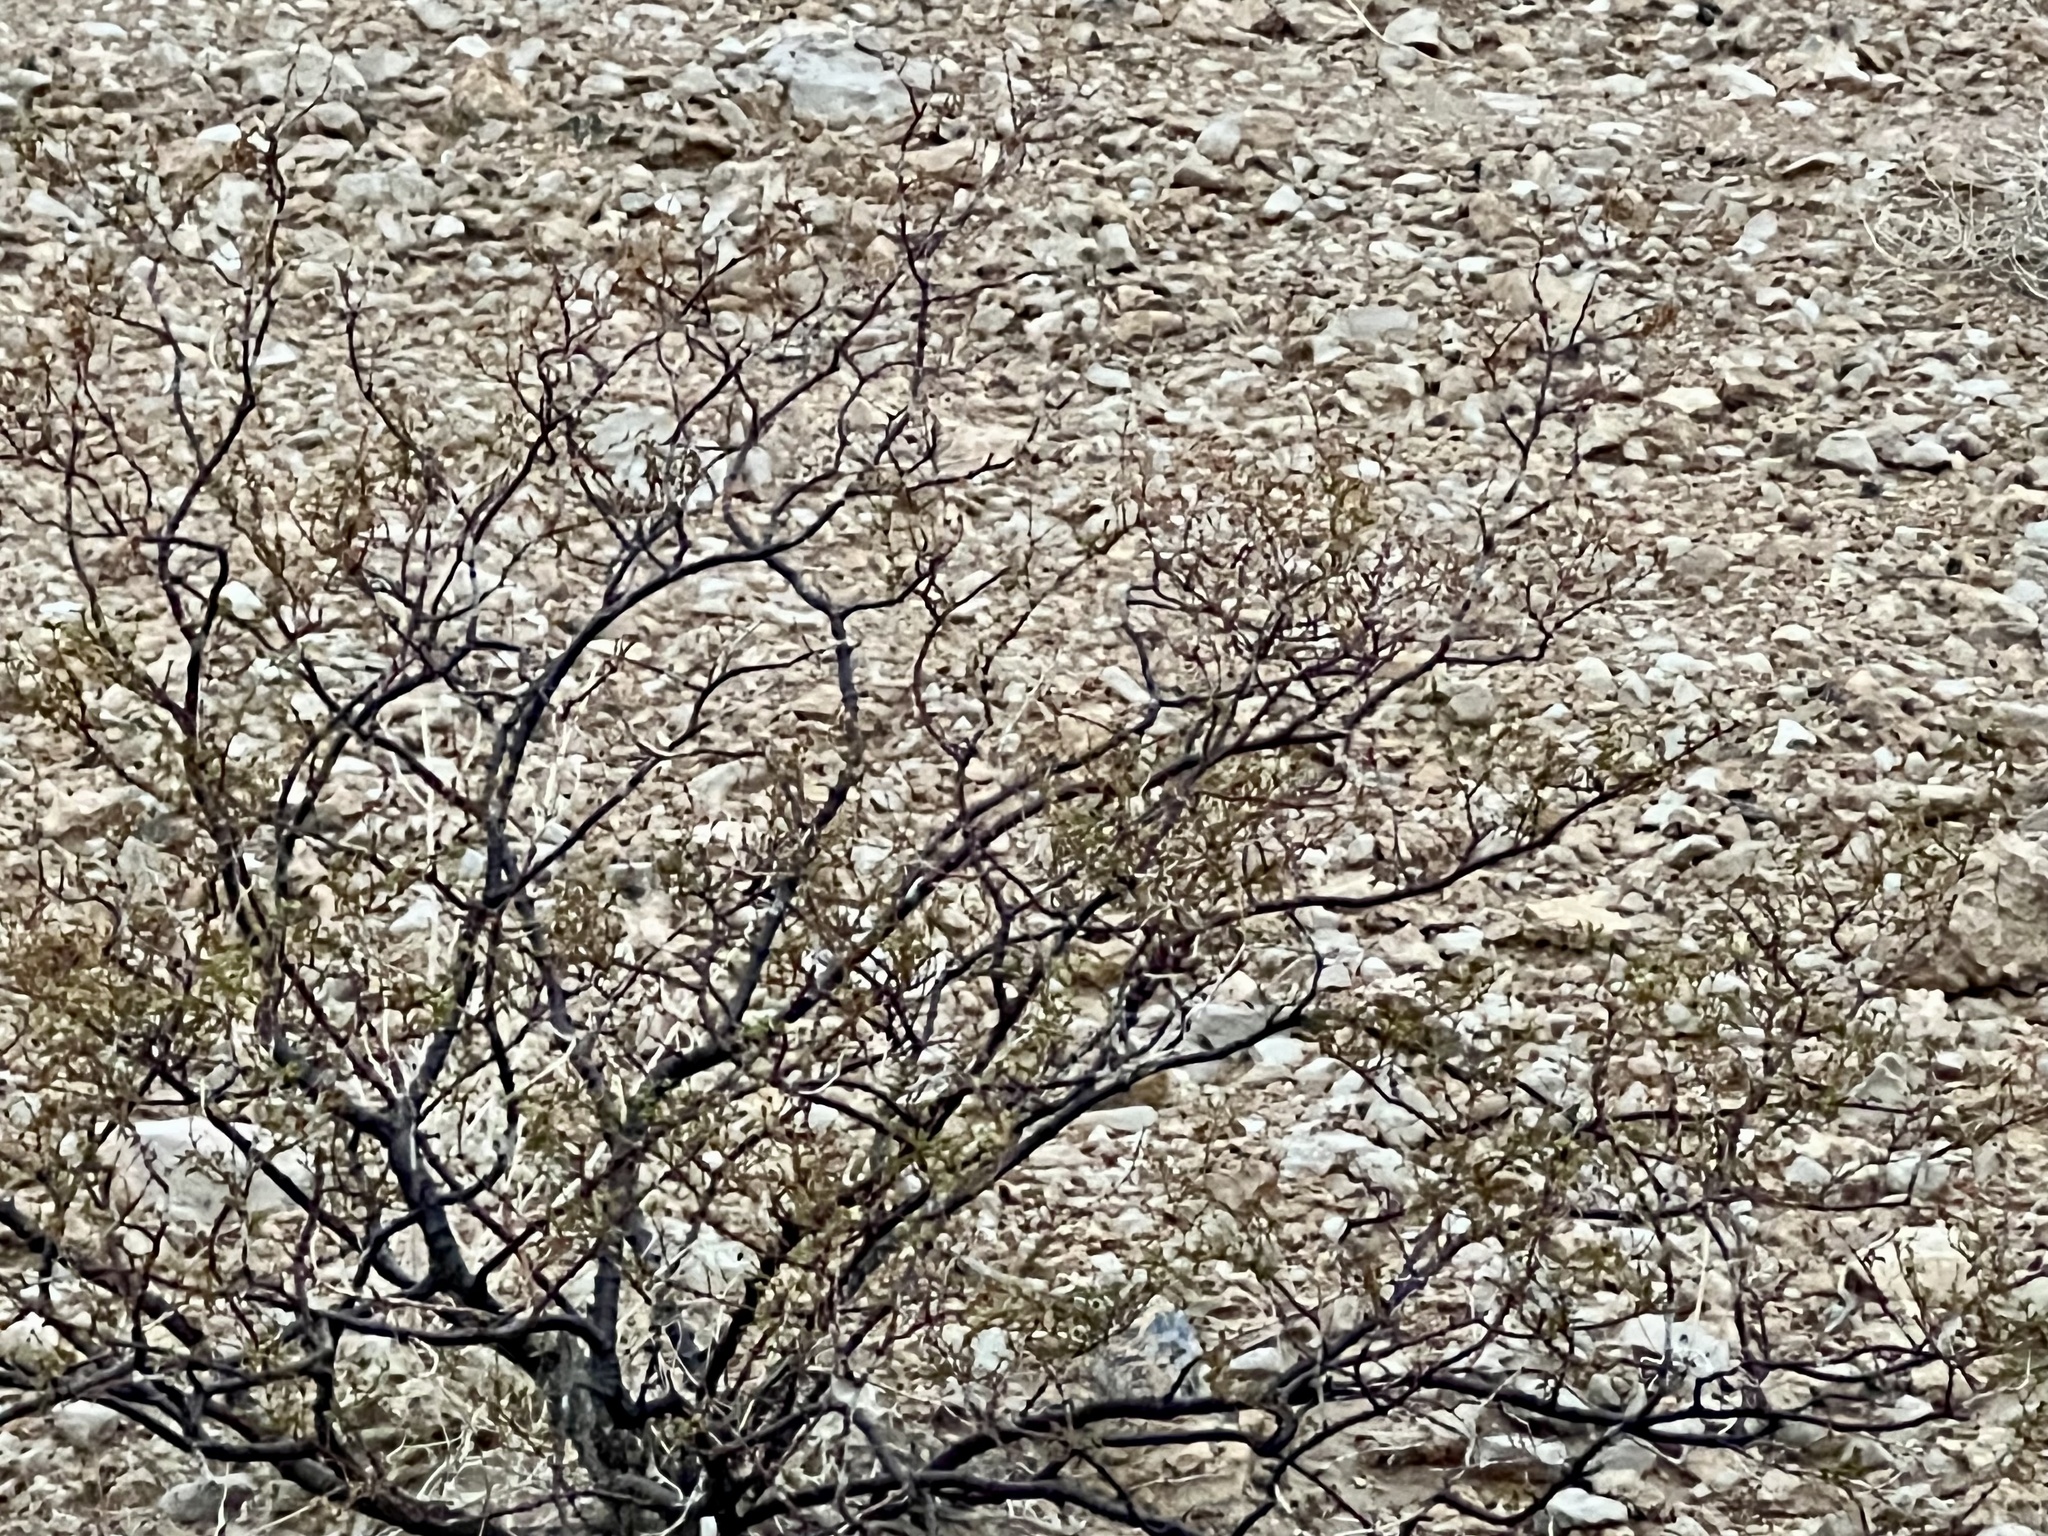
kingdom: Plantae
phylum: Tracheophyta
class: Magnoliopsida
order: Zygophyllales
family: Zygophyllaceae
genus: Larrea
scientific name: Larrea tridentata
